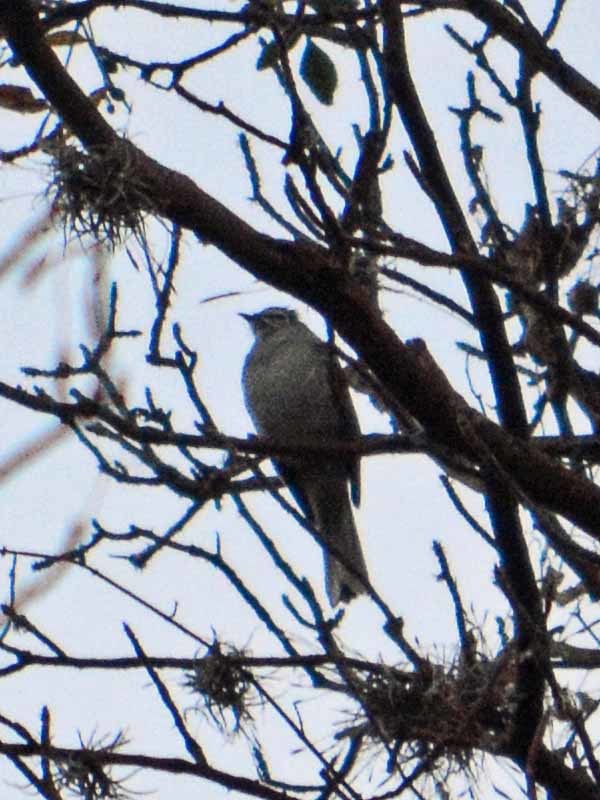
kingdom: Animalia
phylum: Chordata
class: Aves
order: Passeriformes
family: Turdidae
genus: Myadestes
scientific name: Myadestes occidentalis
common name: Brown-backed solitaire
